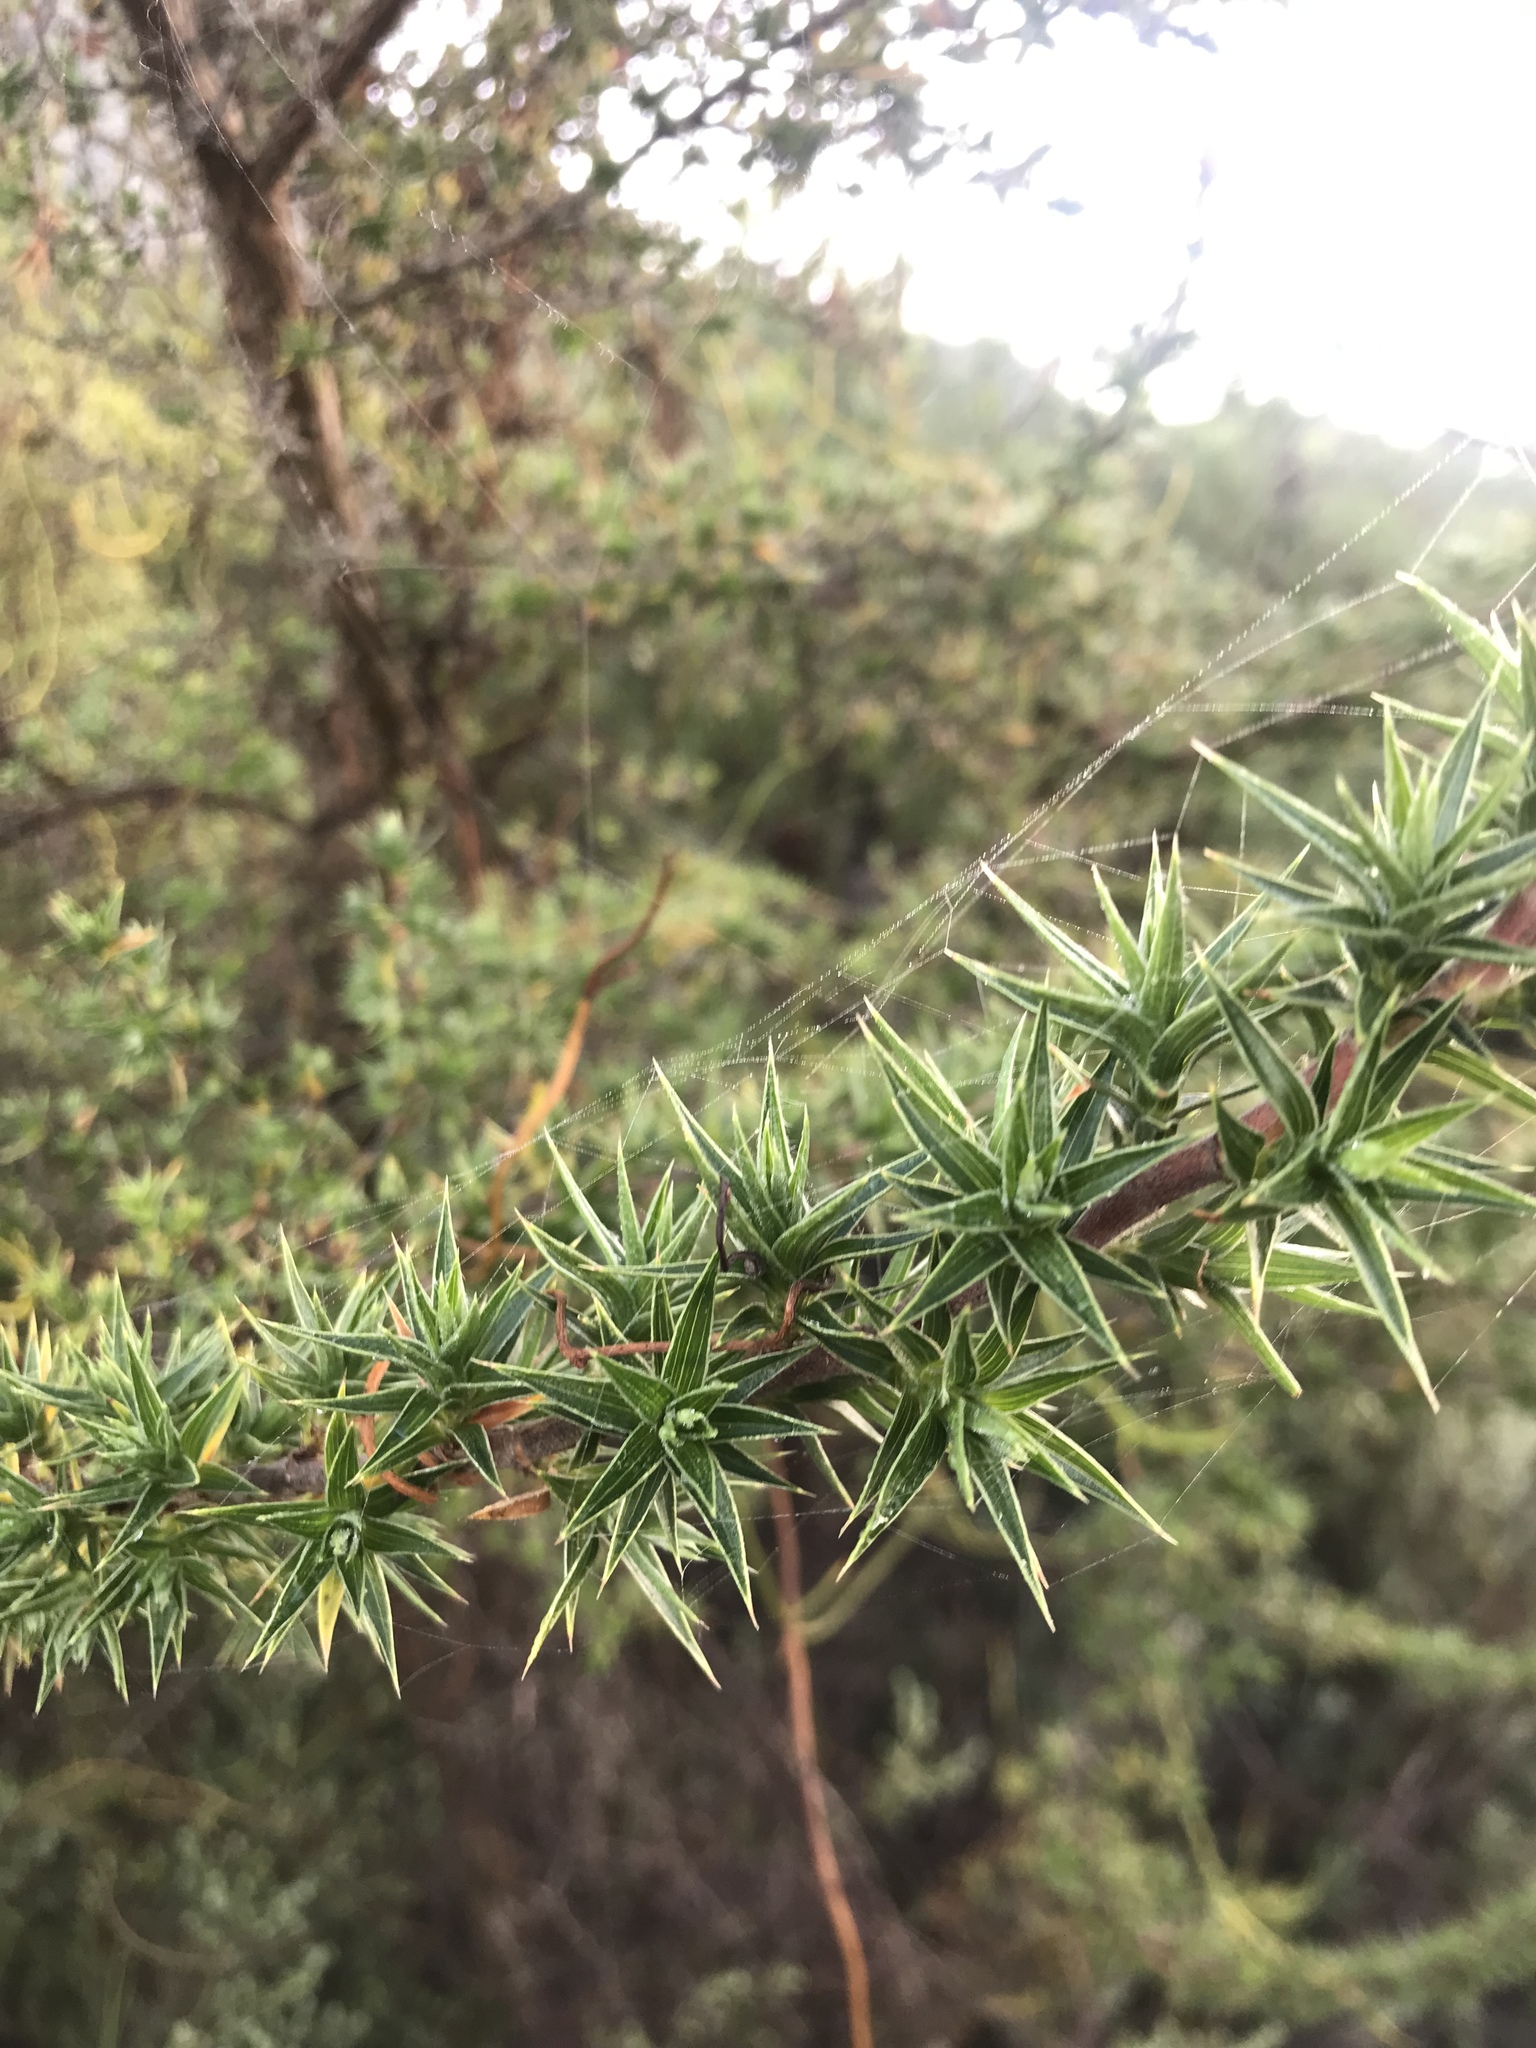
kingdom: Plantae
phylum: Tracheophyta
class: Magnoliopsida
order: Rosales
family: Rosaceae
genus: Cliffortia
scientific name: Cliffortia ruscifolia
